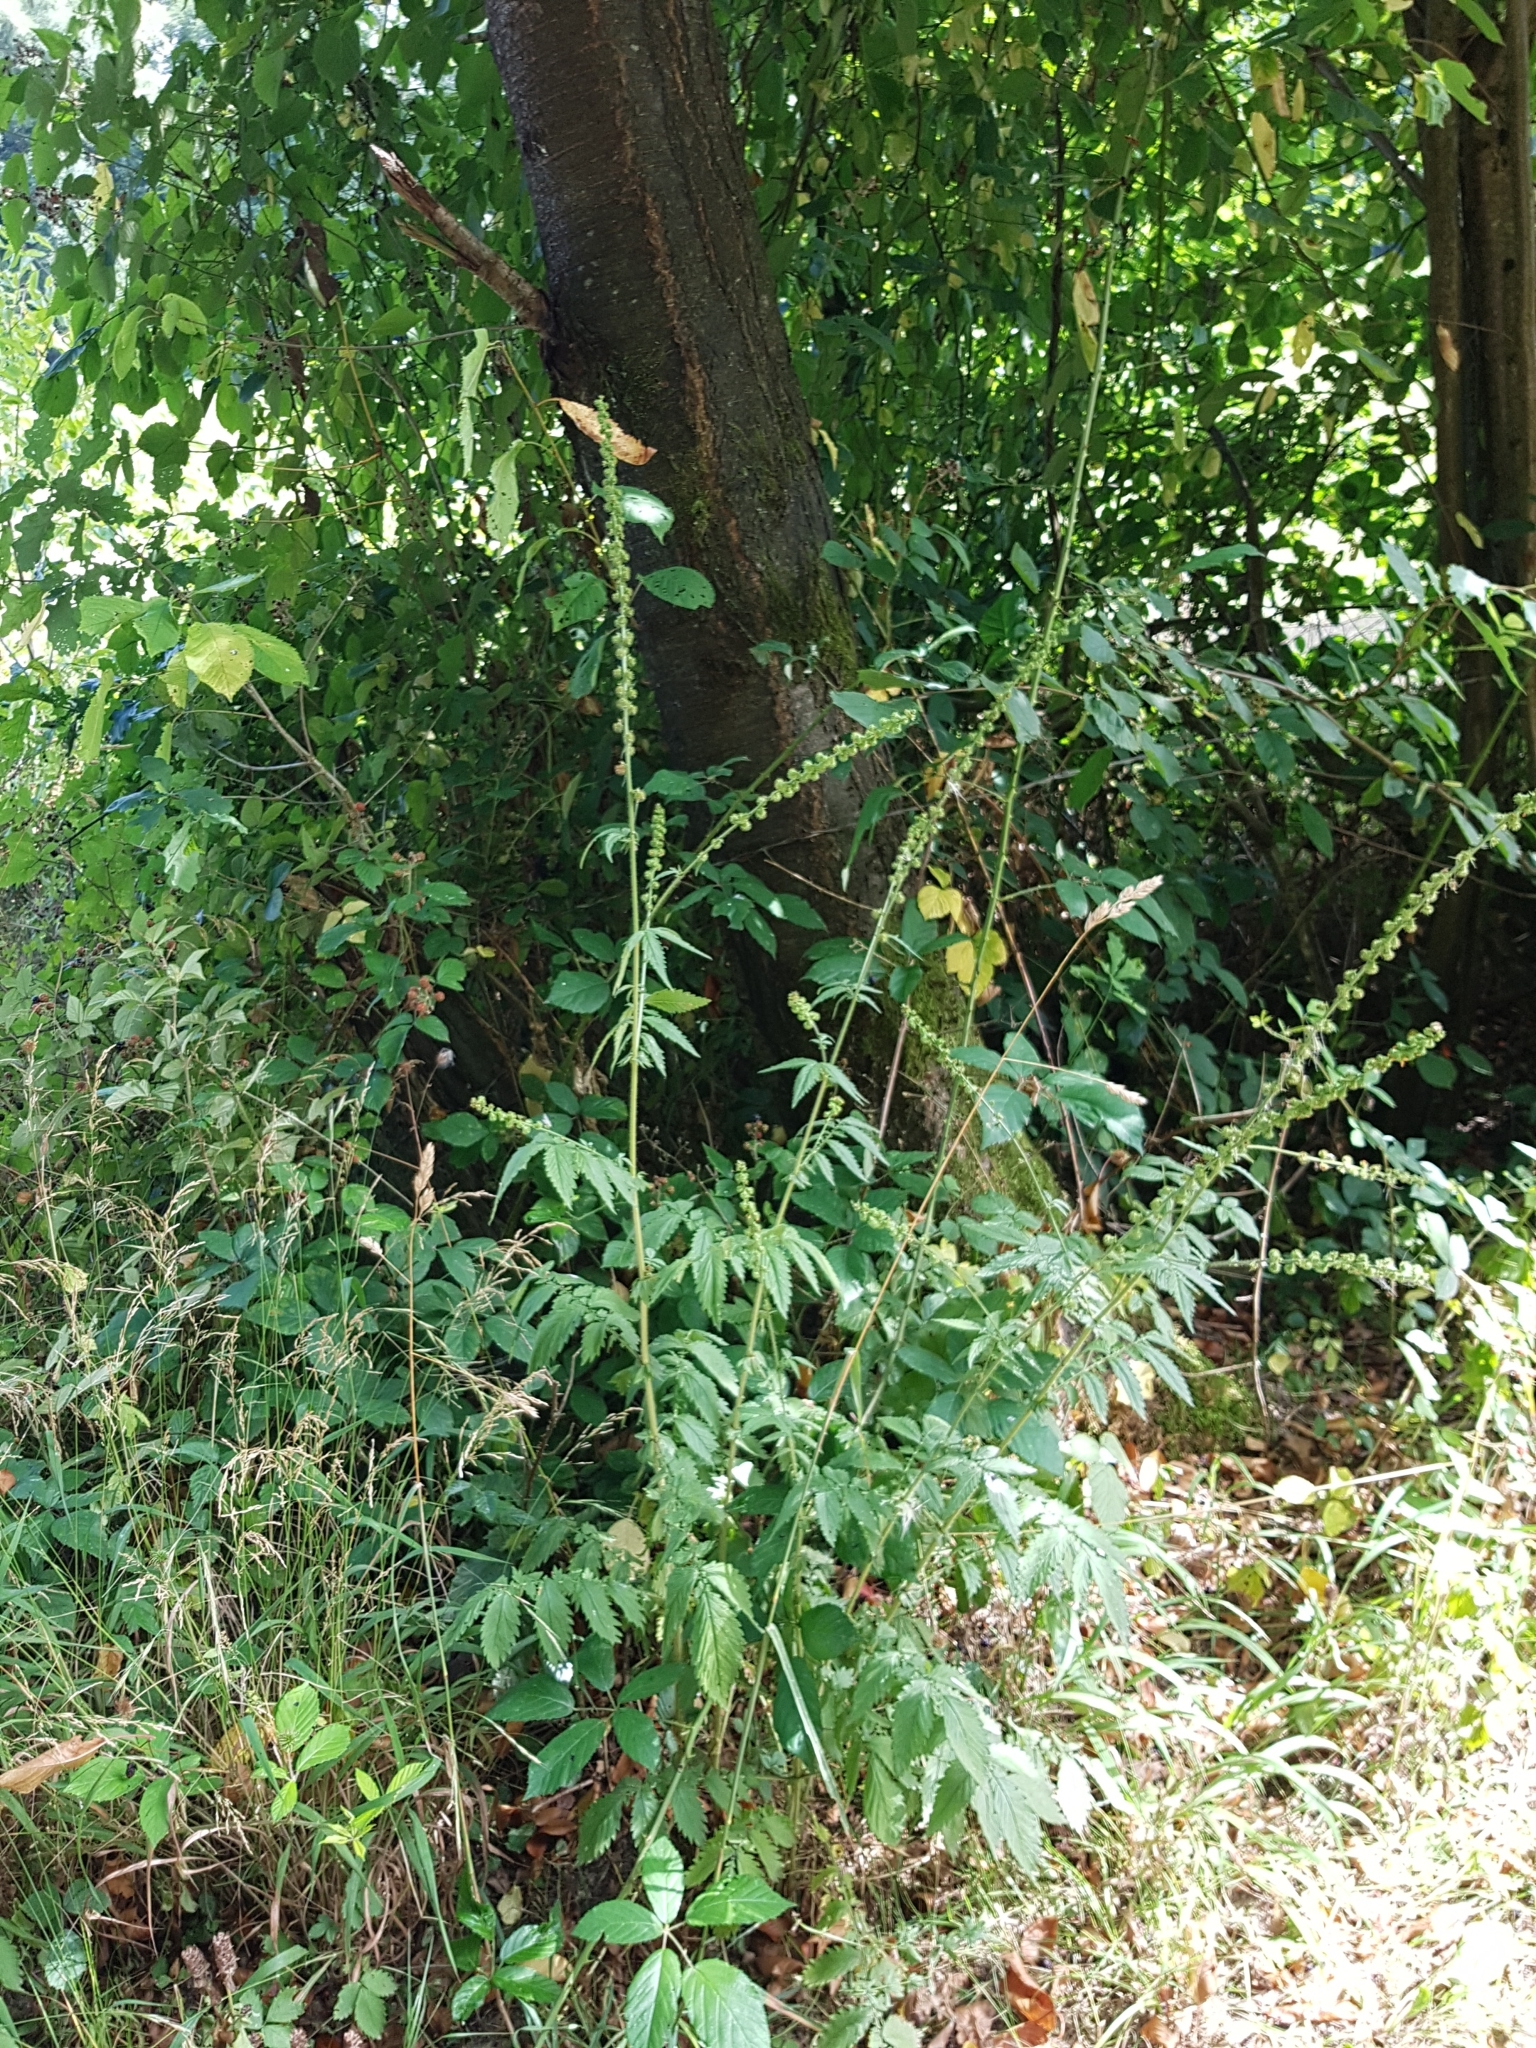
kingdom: Plantae
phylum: Tracheophyta
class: Magnoliopsida
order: Rosales
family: Rosaceae
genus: Agrimonia
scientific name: Agrimonia procera
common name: Fragrant agrimony
